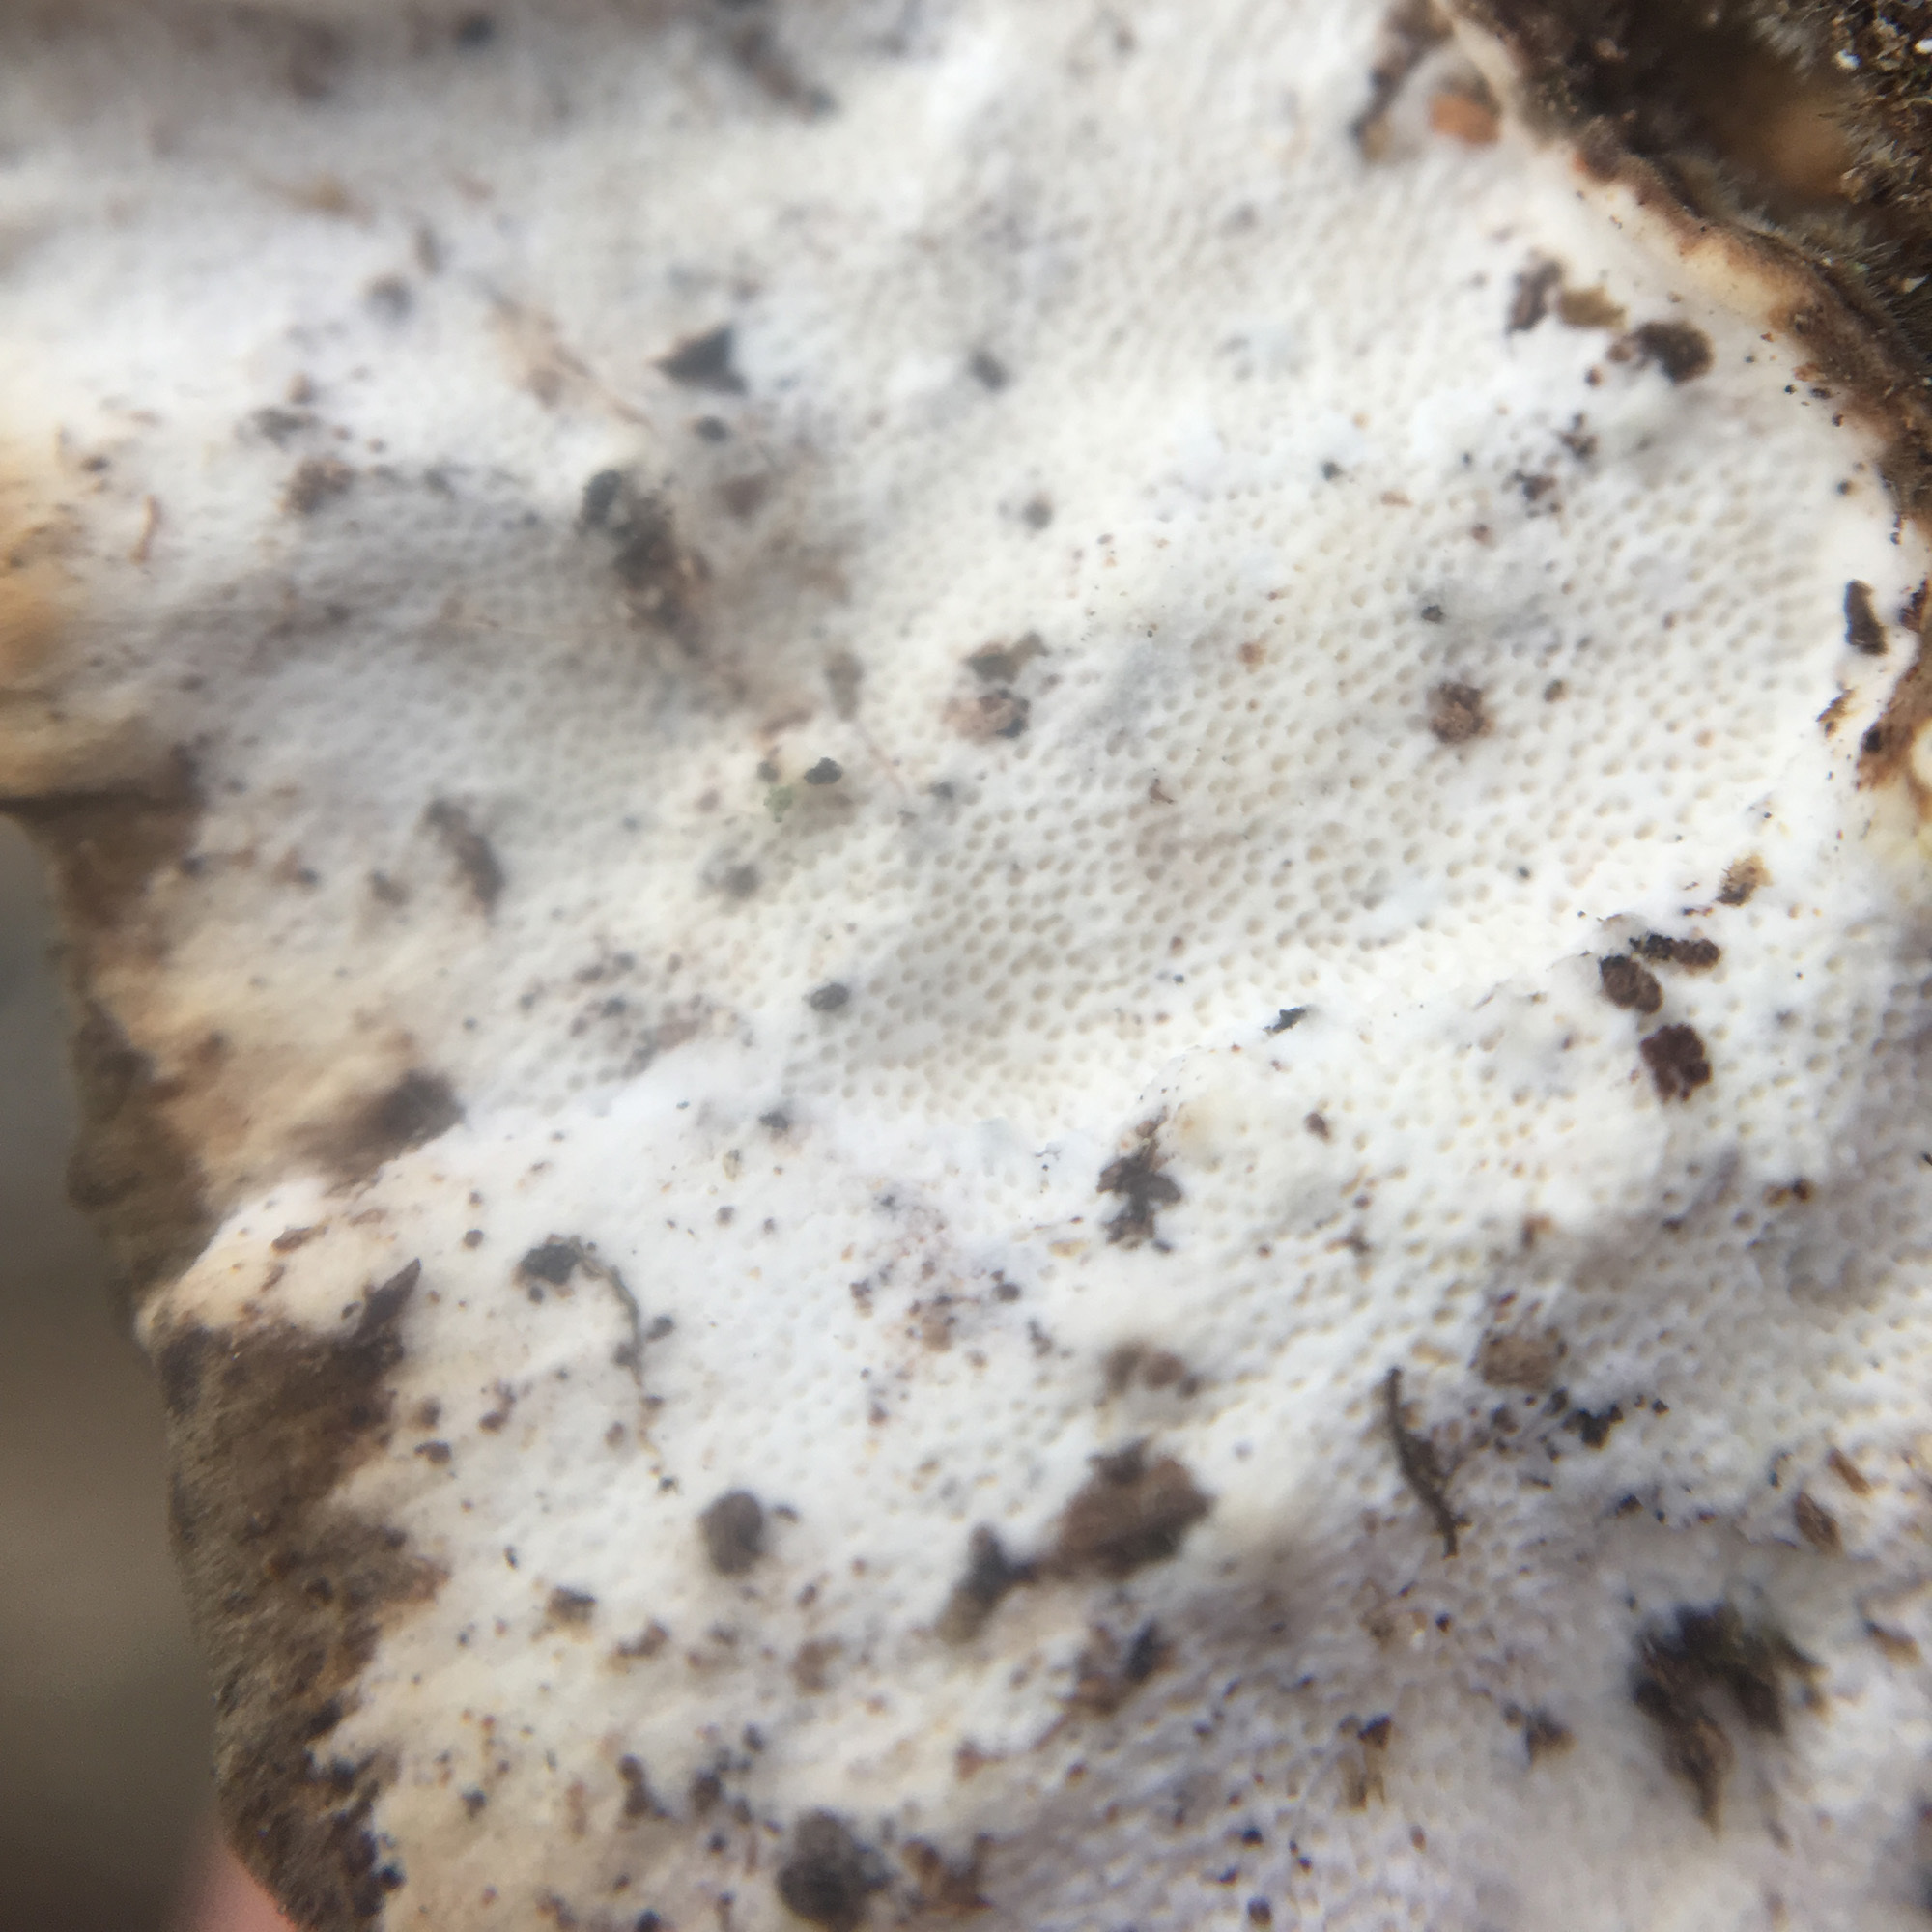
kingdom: Fungi
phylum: Basidiomycota
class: Agaricomycetes
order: Polyporales
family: Polyporaceae
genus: Trametes
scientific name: Trametes versicolor
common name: Turkeytail
